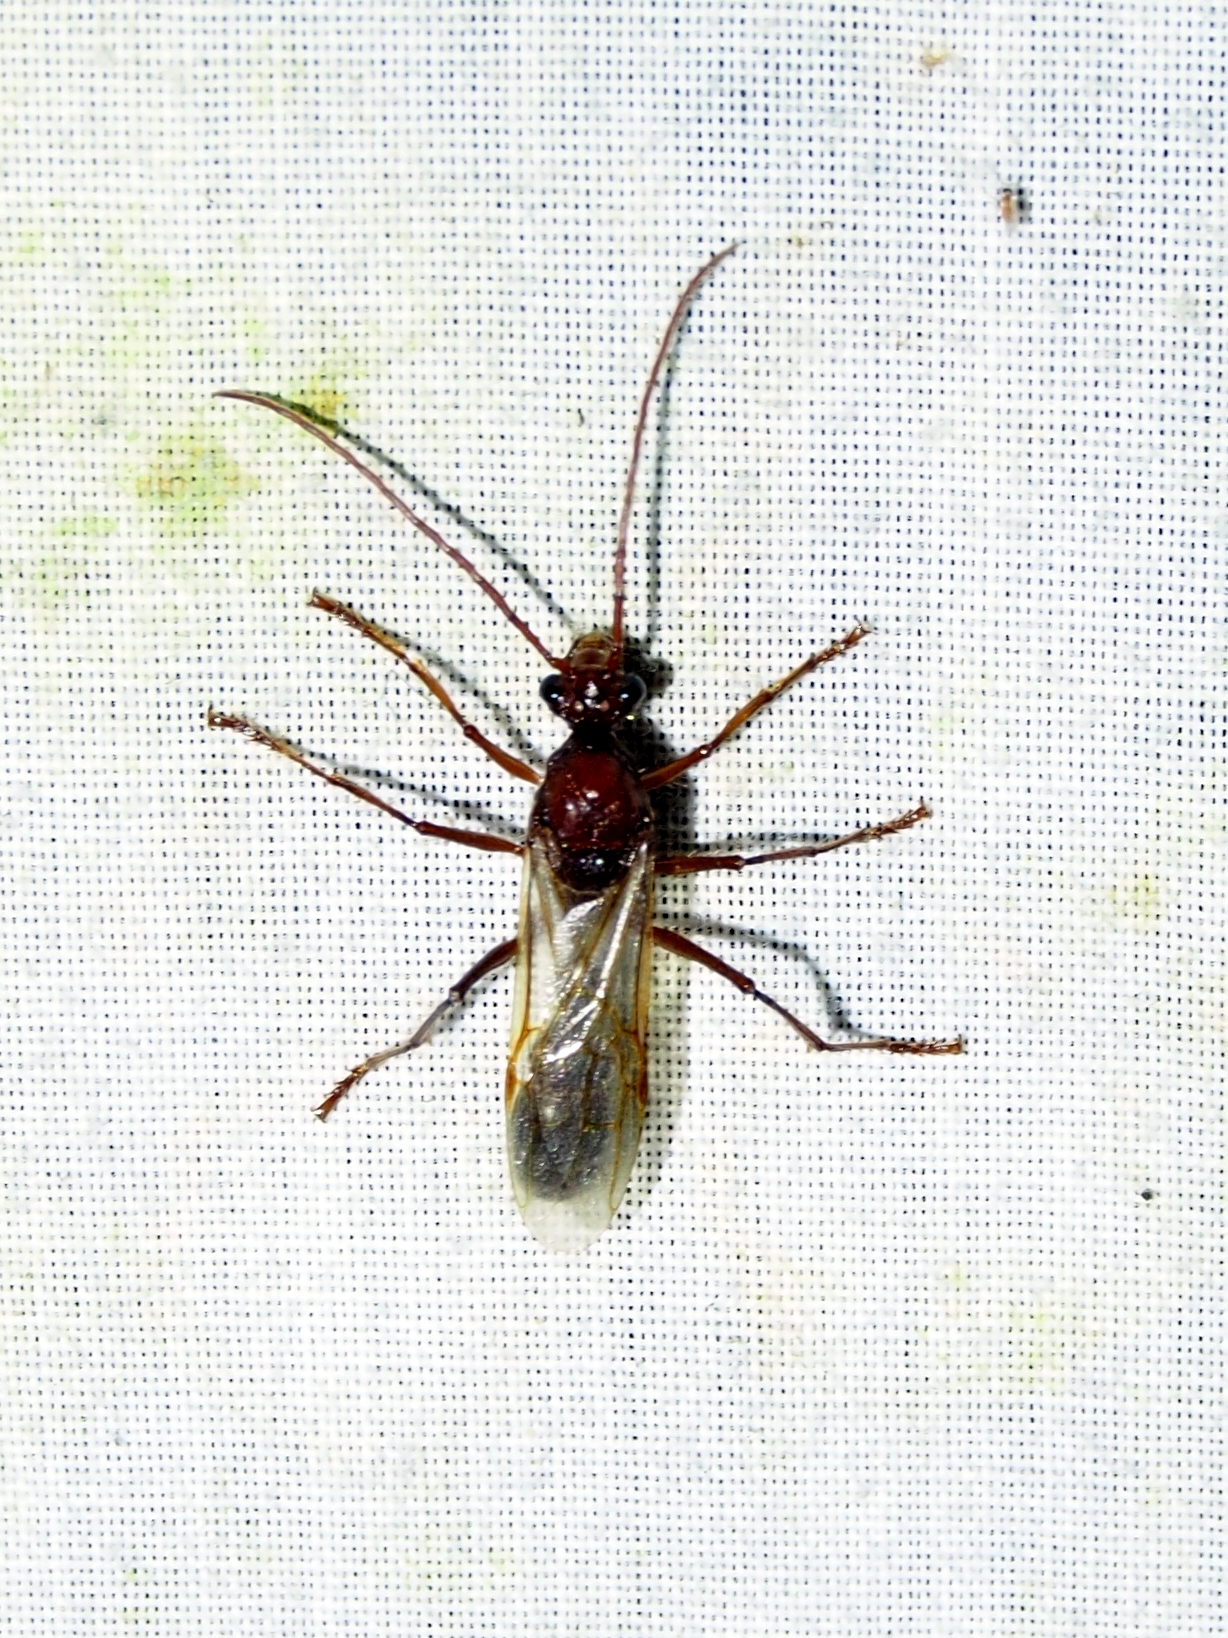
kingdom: Animalia
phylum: Arthropoda
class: Insecta
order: Hymenoptera
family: Formicidae
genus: Paraponera
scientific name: Paraponera clavata
